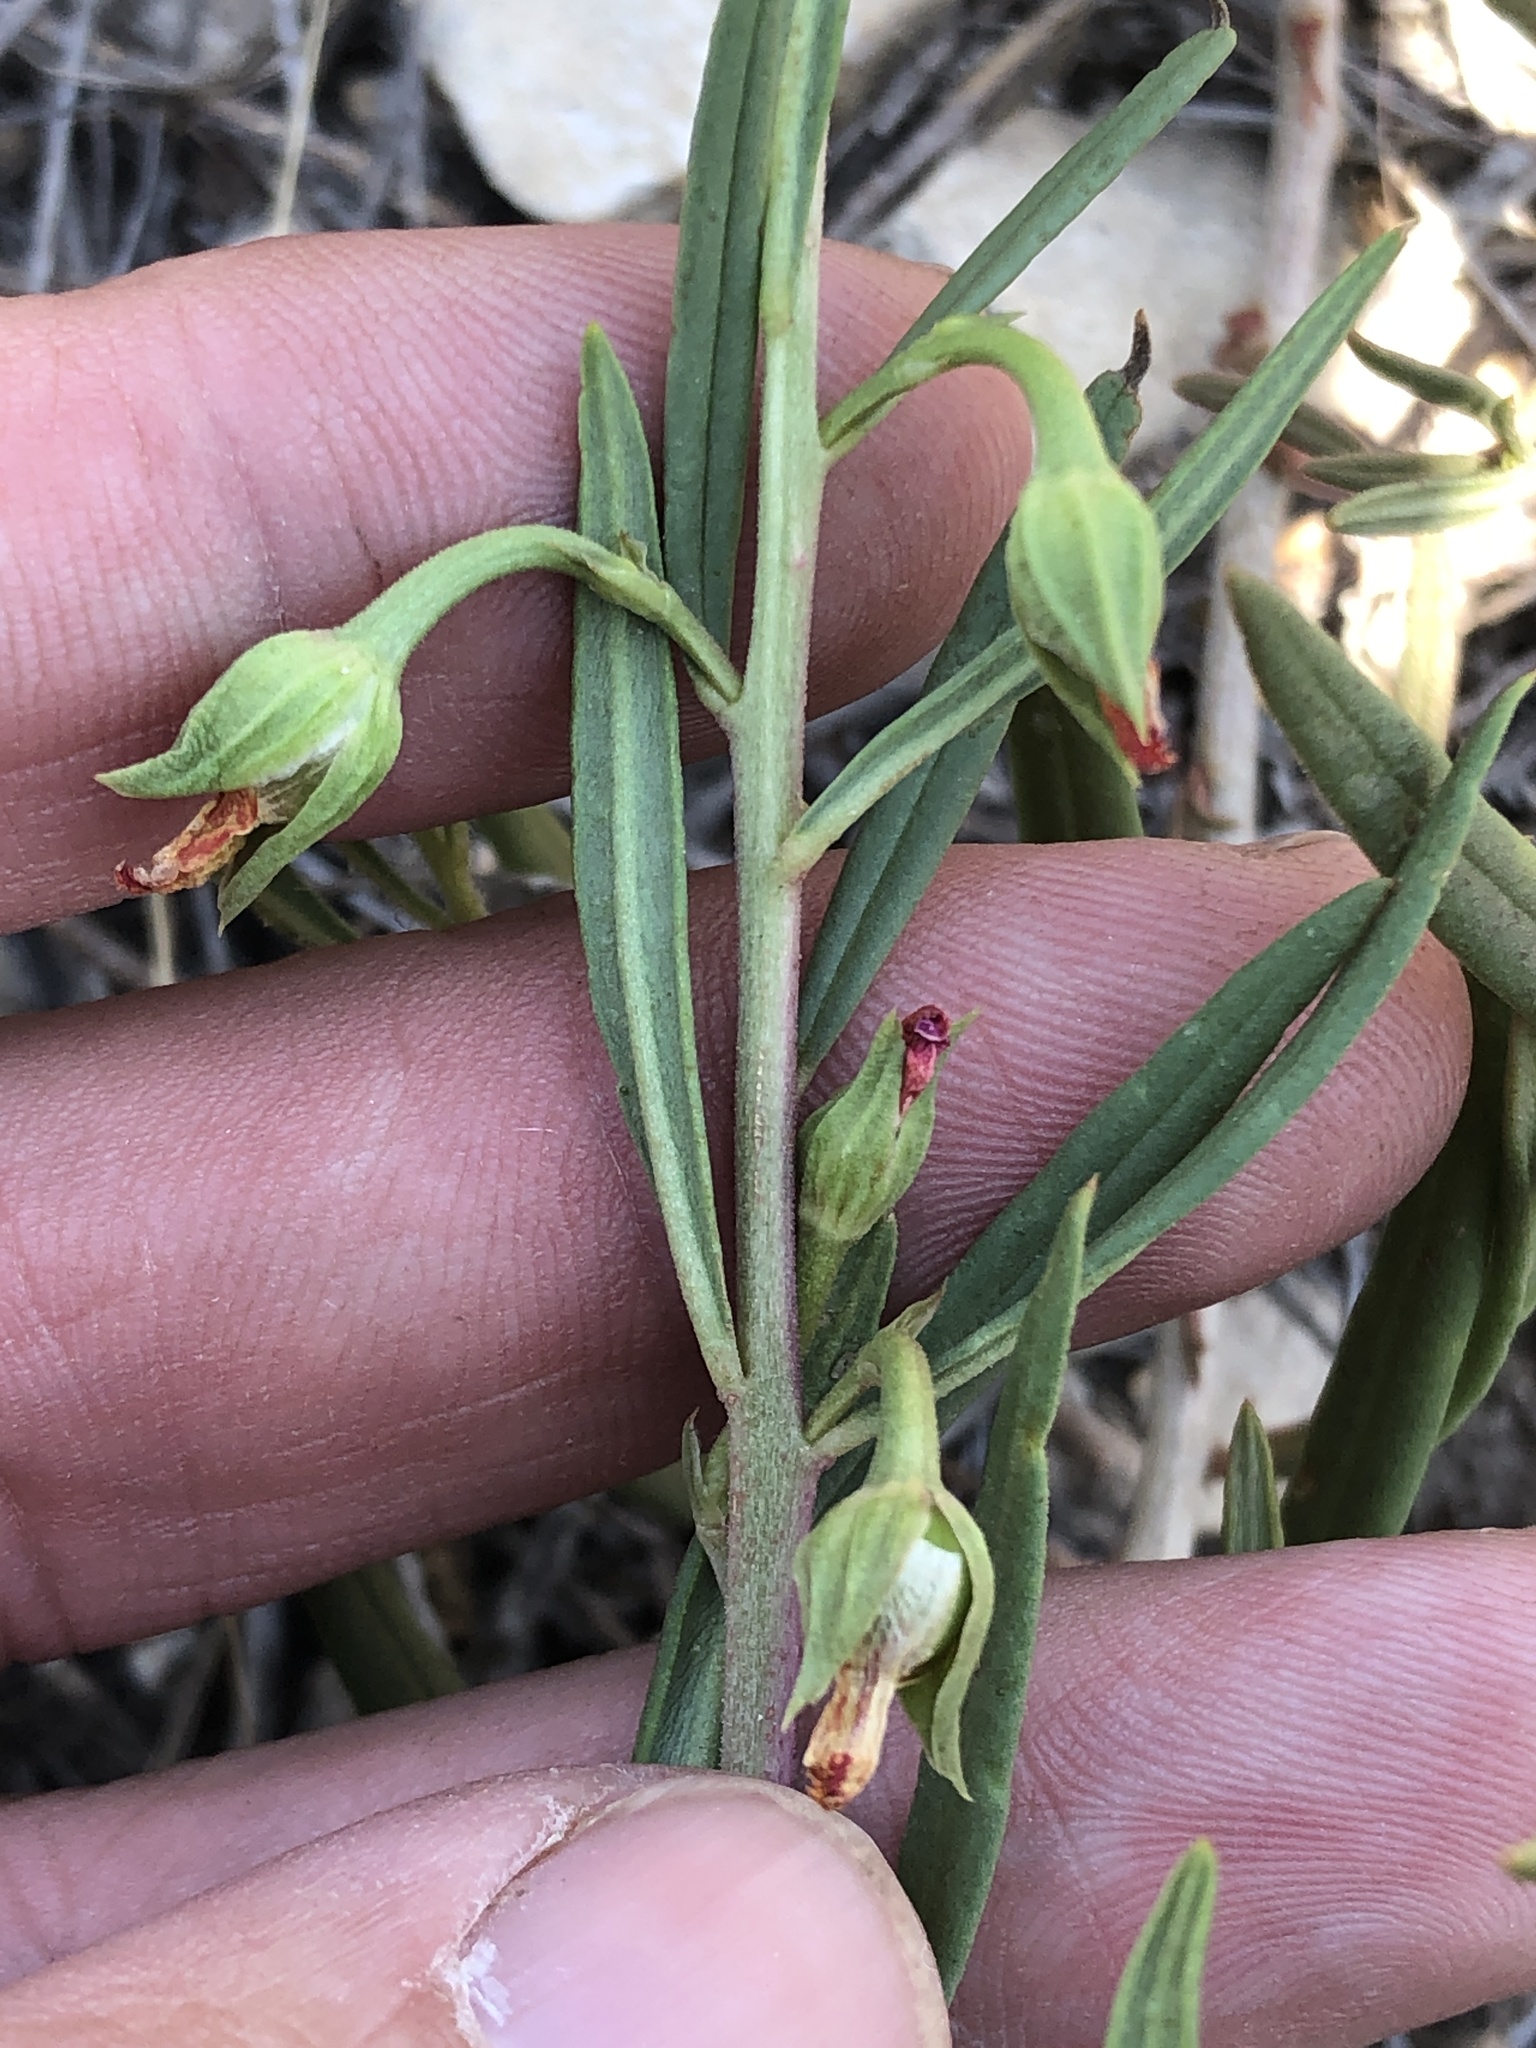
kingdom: Plantae
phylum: Tracheophyta
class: Magnoliopsida
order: Caryophyllales
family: Montiaceae
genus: Phemeranthus
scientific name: Phemeranthus aurantiacus
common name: Orange fameflower
